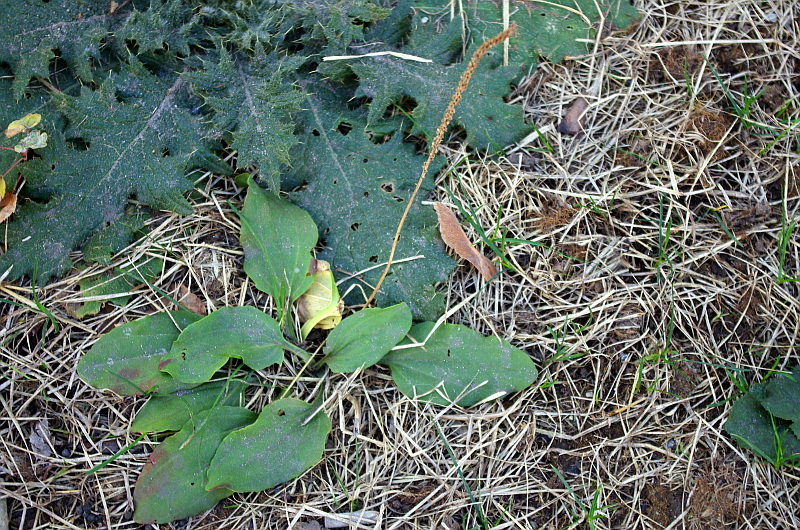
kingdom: Plantae
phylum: Tracheophyta
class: Magnoliopsida
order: Lamiales
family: Plantaginaceae
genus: Plantago
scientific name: Plantago major
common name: Common plantain
